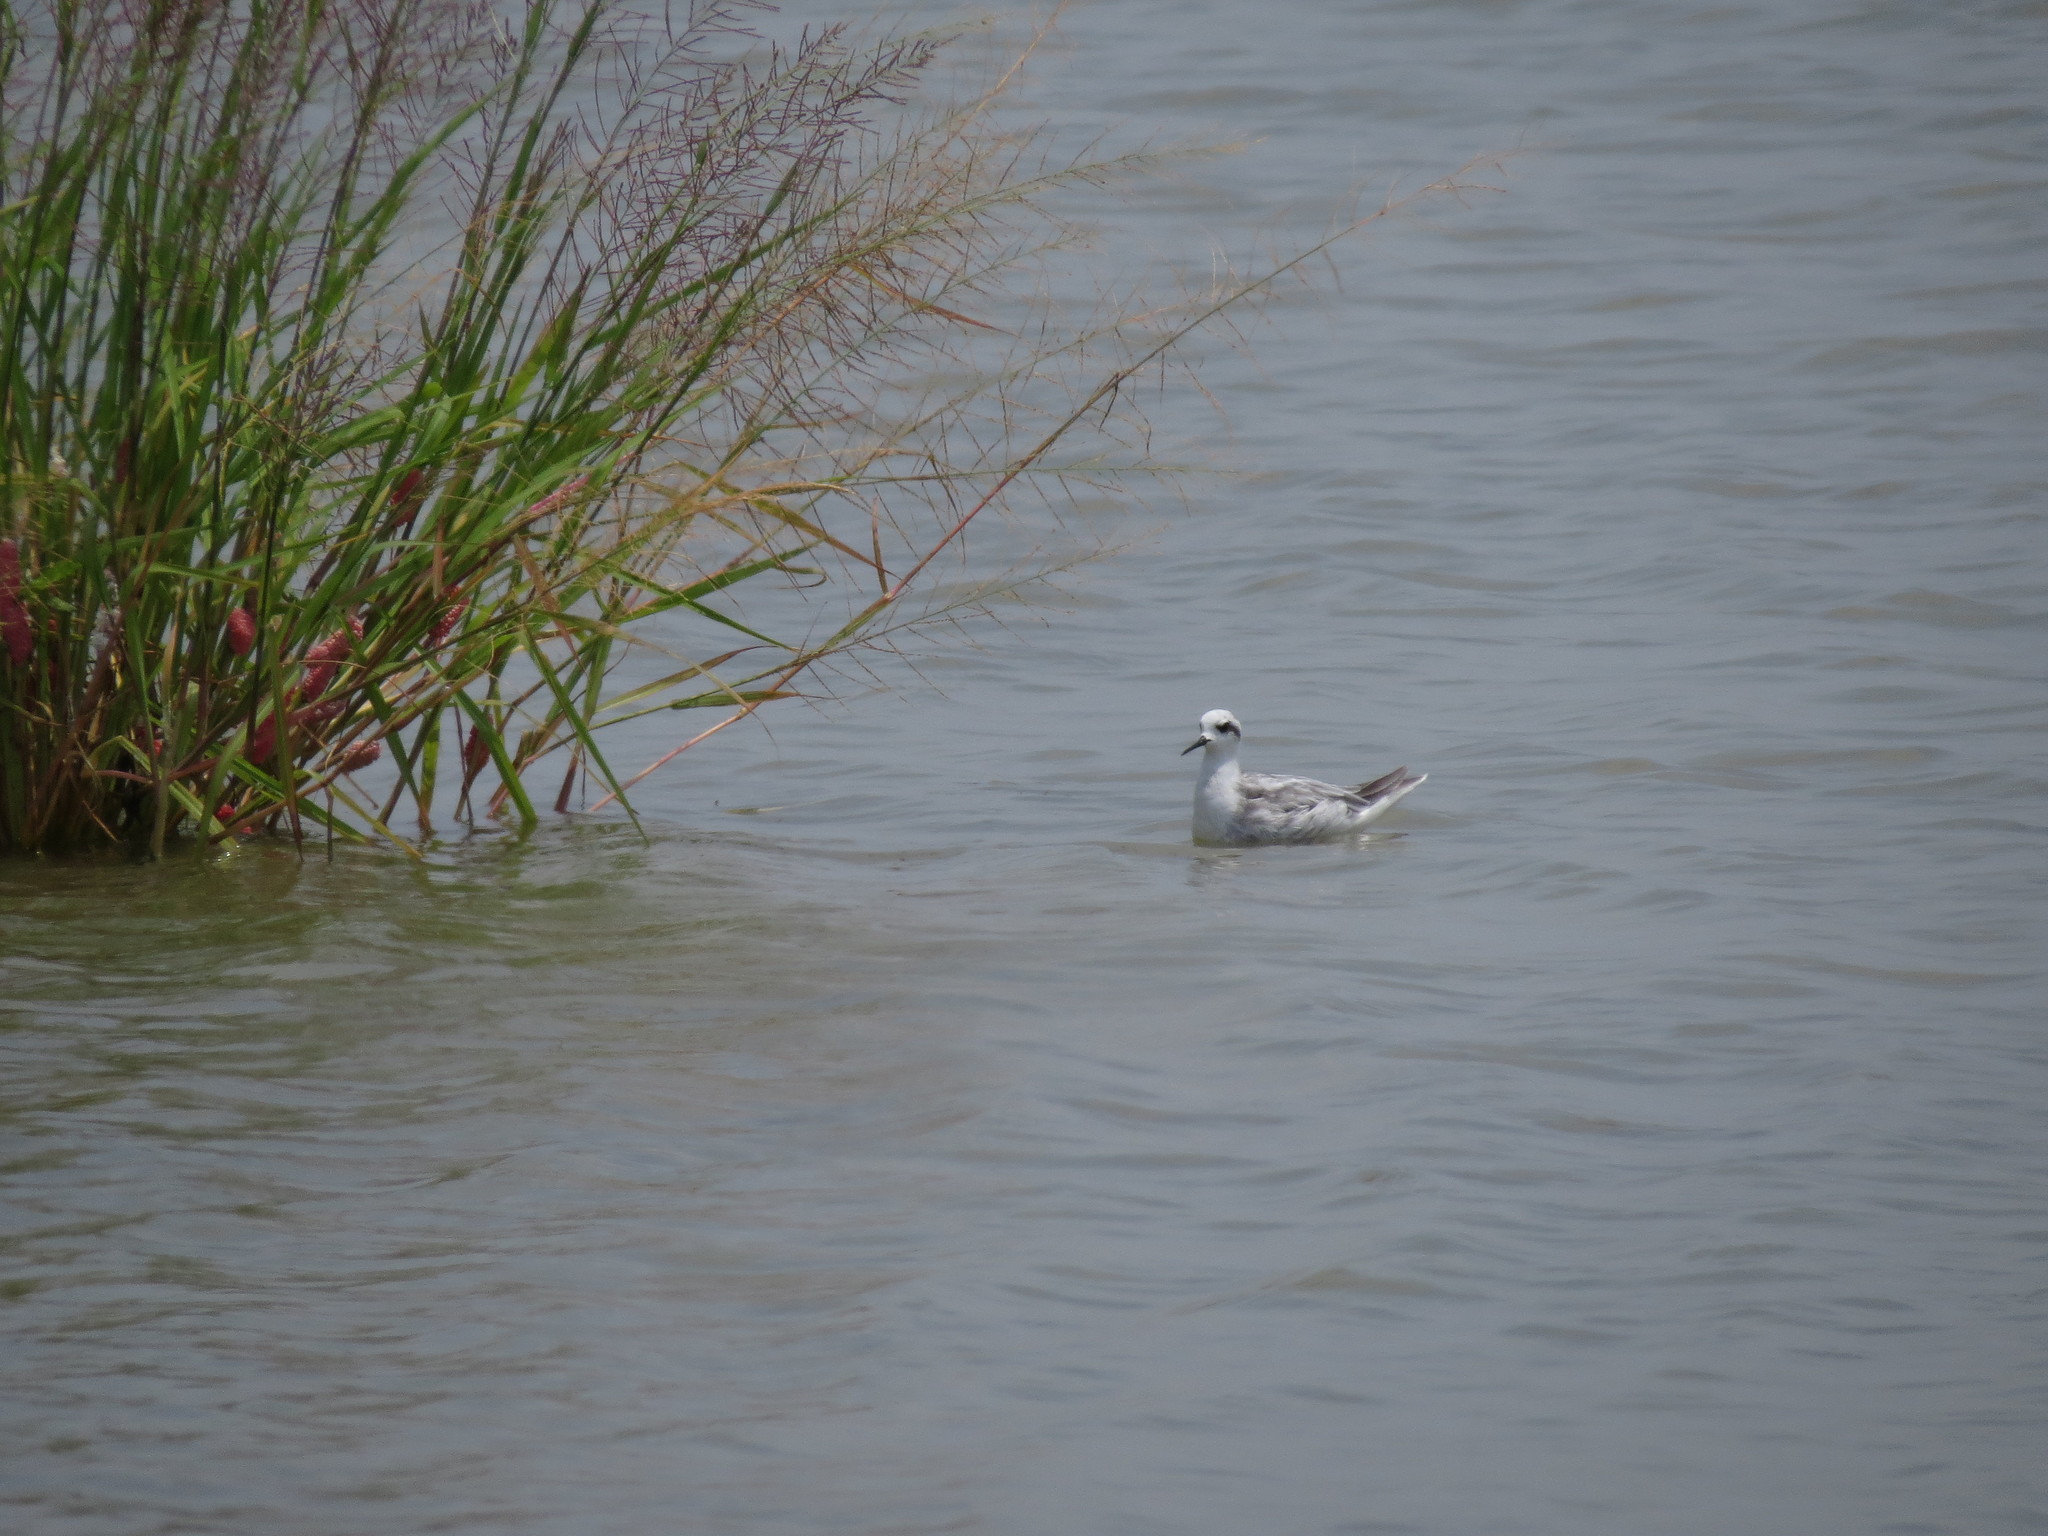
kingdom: Animalia
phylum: Chordata
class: Aves
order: Charadriiformes
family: Scolopacidae
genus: Phalaropus
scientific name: Phalaropus lobatus
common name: Red-necked phalarope
